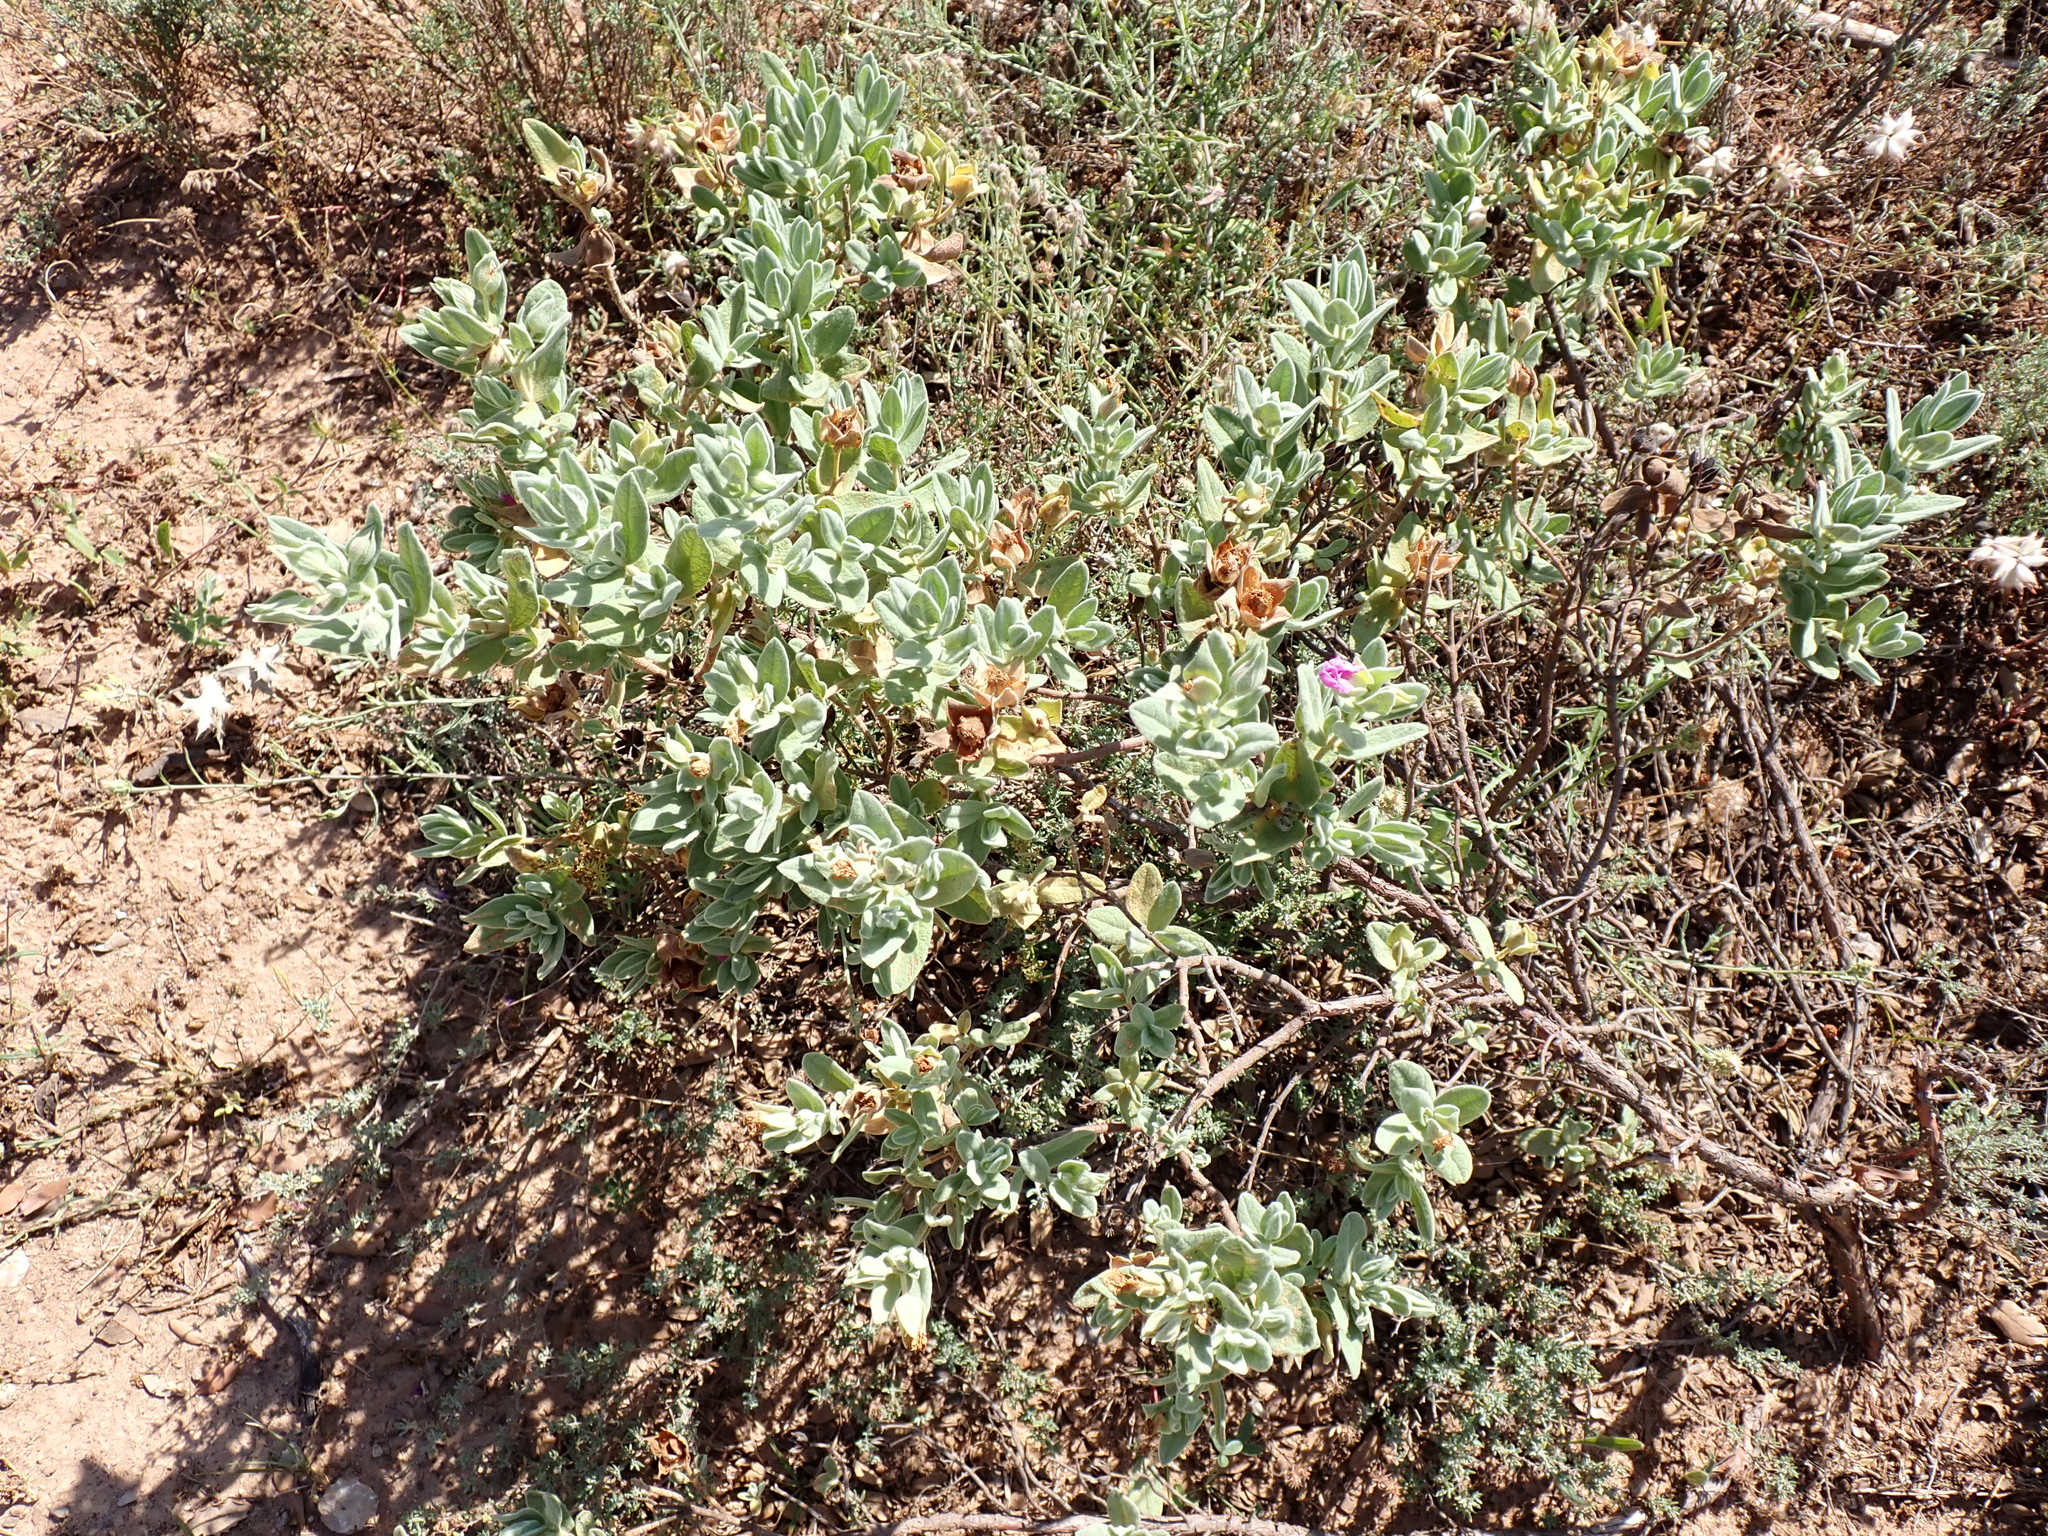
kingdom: Plantae
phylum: Tracheophyta
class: Magnoliopsida
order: Malvales
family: Cistaceae
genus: Cistus
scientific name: Cistus albidus
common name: White-leaf rock-rose
